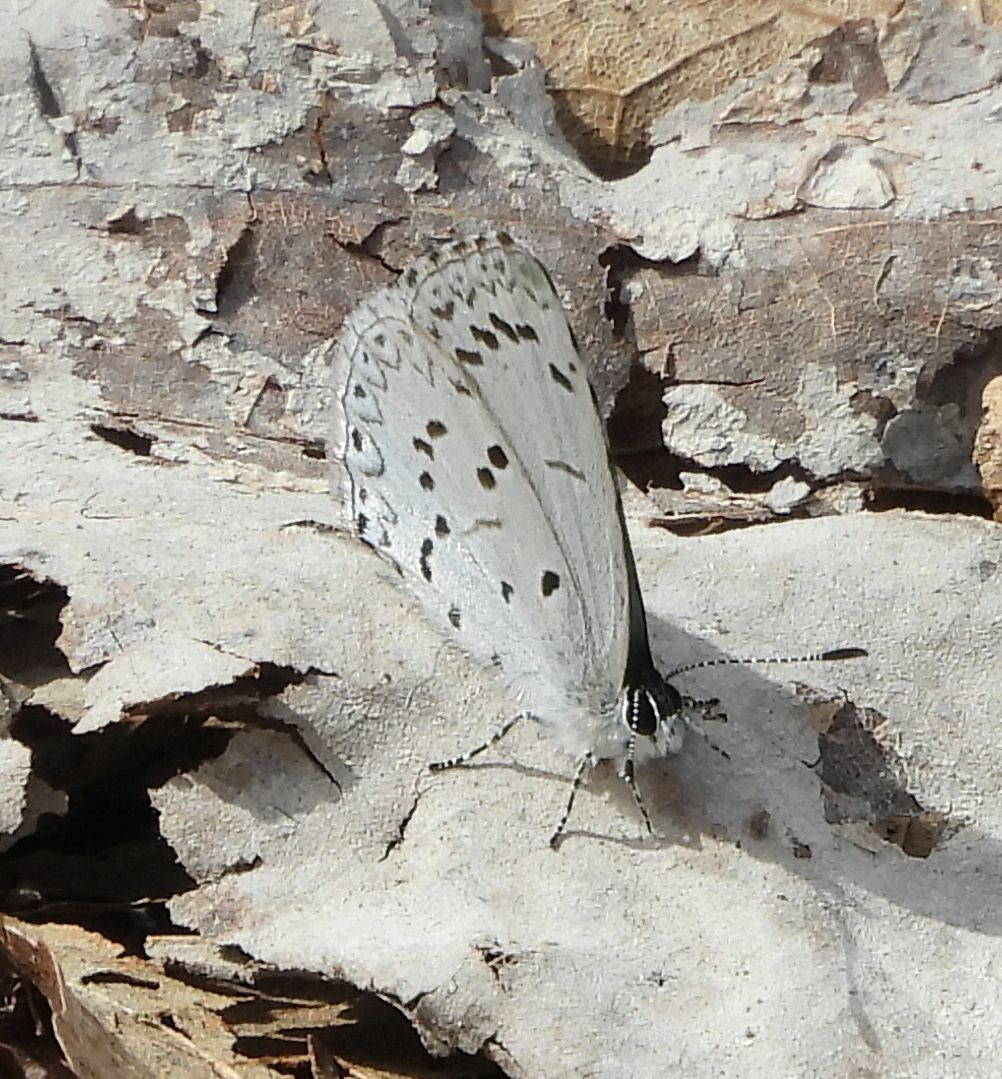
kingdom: Animalia
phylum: Arthropoda
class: Insecta
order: Lepidoptera
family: Lycaenidae
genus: Celastrina
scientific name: Celastrina lucia
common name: Lucia azure
